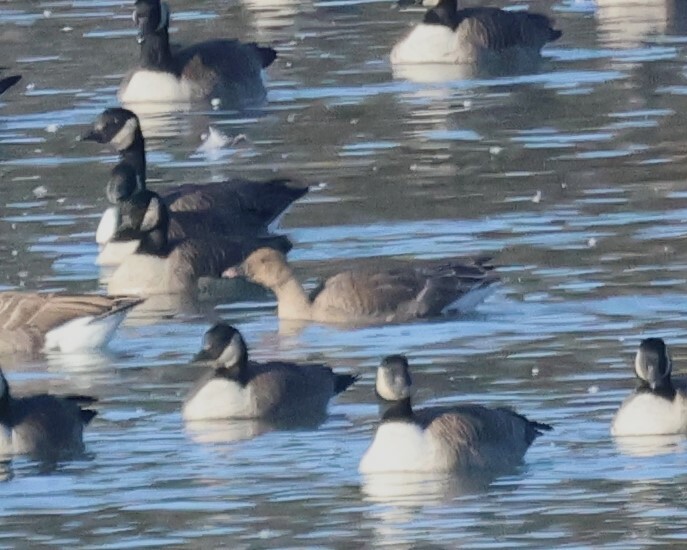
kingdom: Animalia
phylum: Chordata
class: Aves
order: Anseriformes
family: Anatidae
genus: Anser
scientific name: Anser brachyrhynchus
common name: Pink-footed goose
